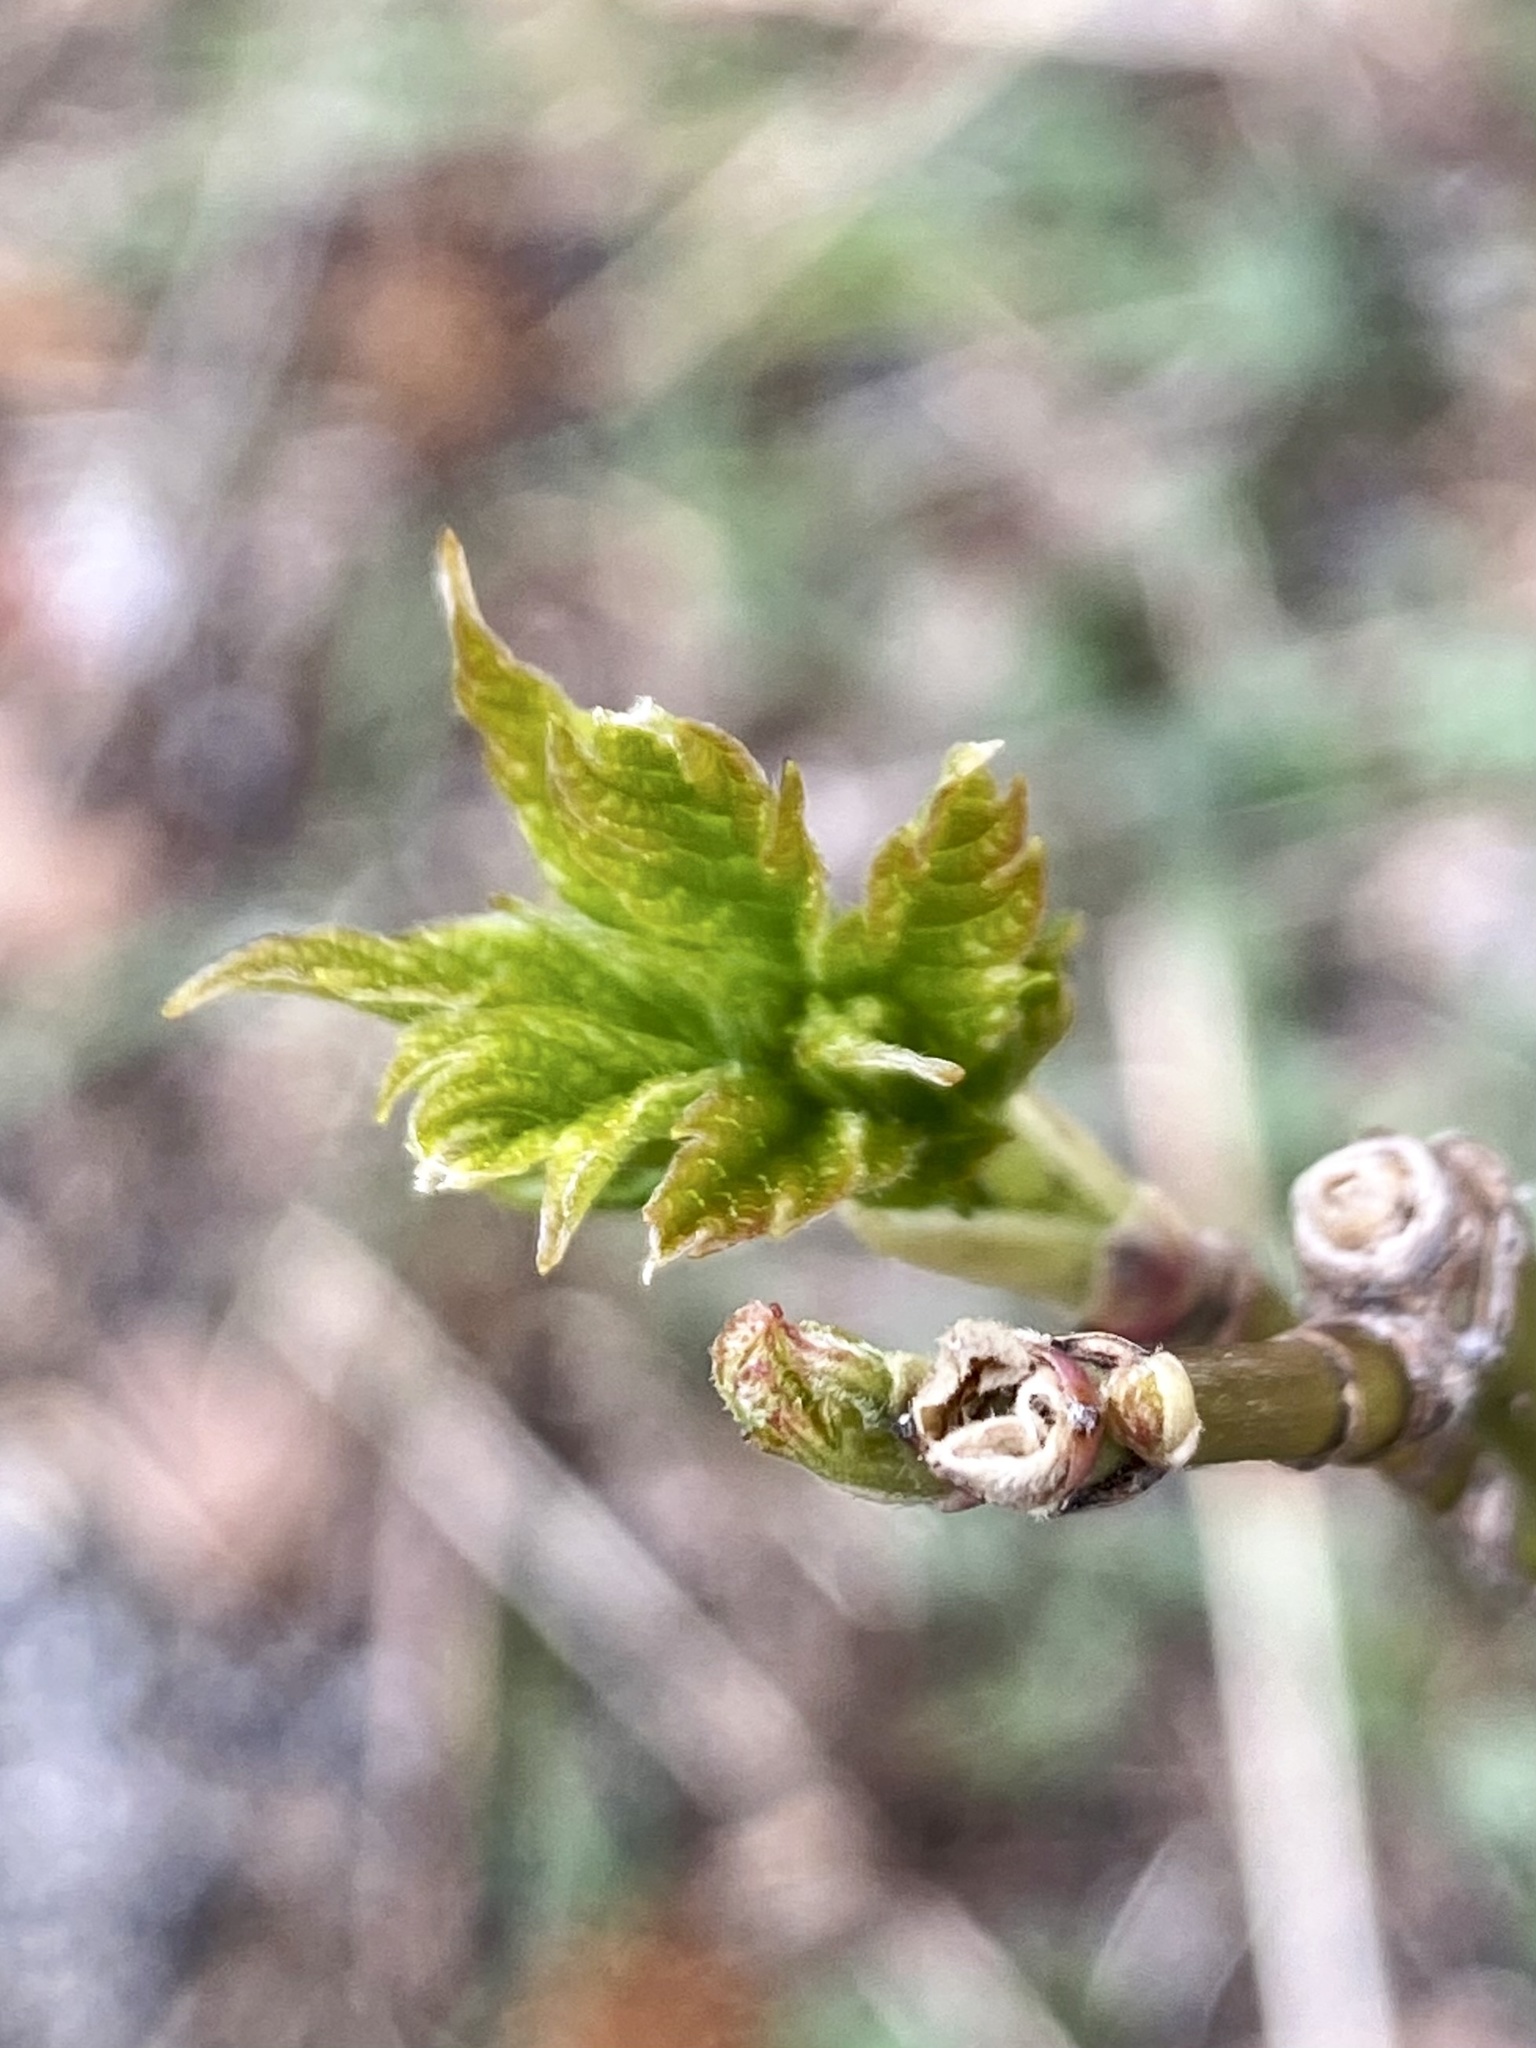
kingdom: Plantae
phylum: Tracheophyta
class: Magnoliopsida
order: Sapindales
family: Sapindaceae
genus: Acer
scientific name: Acer negundo
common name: Ashleaf maple
